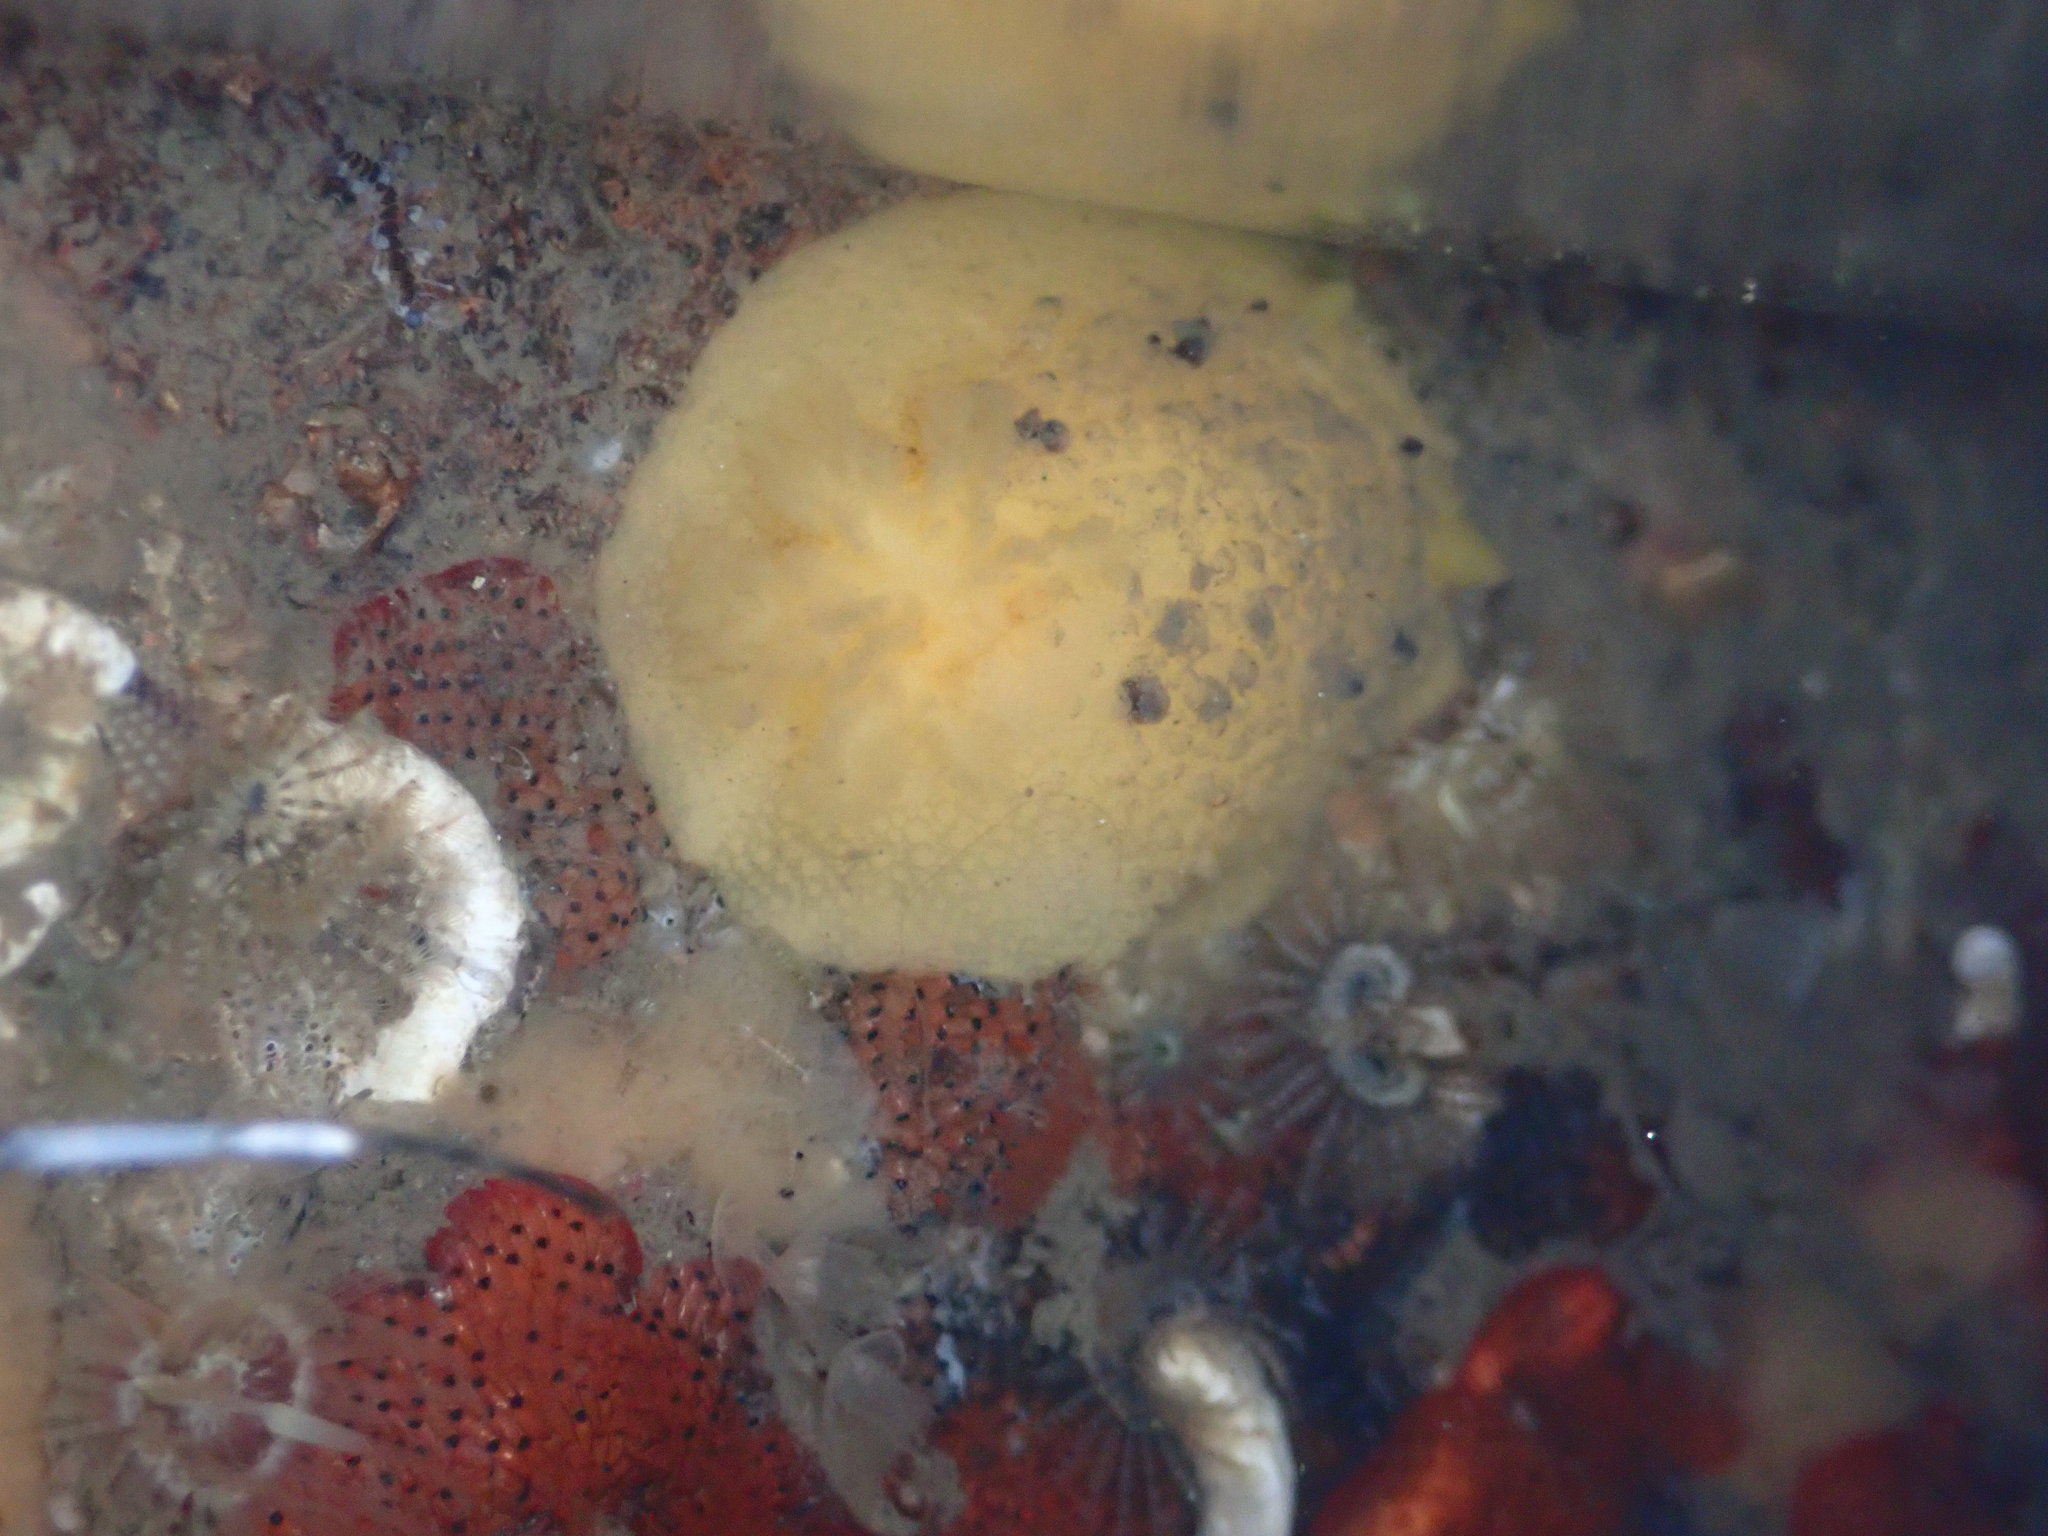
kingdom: Animalia
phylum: Mollusca
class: Gastropoda
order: Nudibranchia
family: Dorididae
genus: Doris
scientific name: Doris montereyensis
